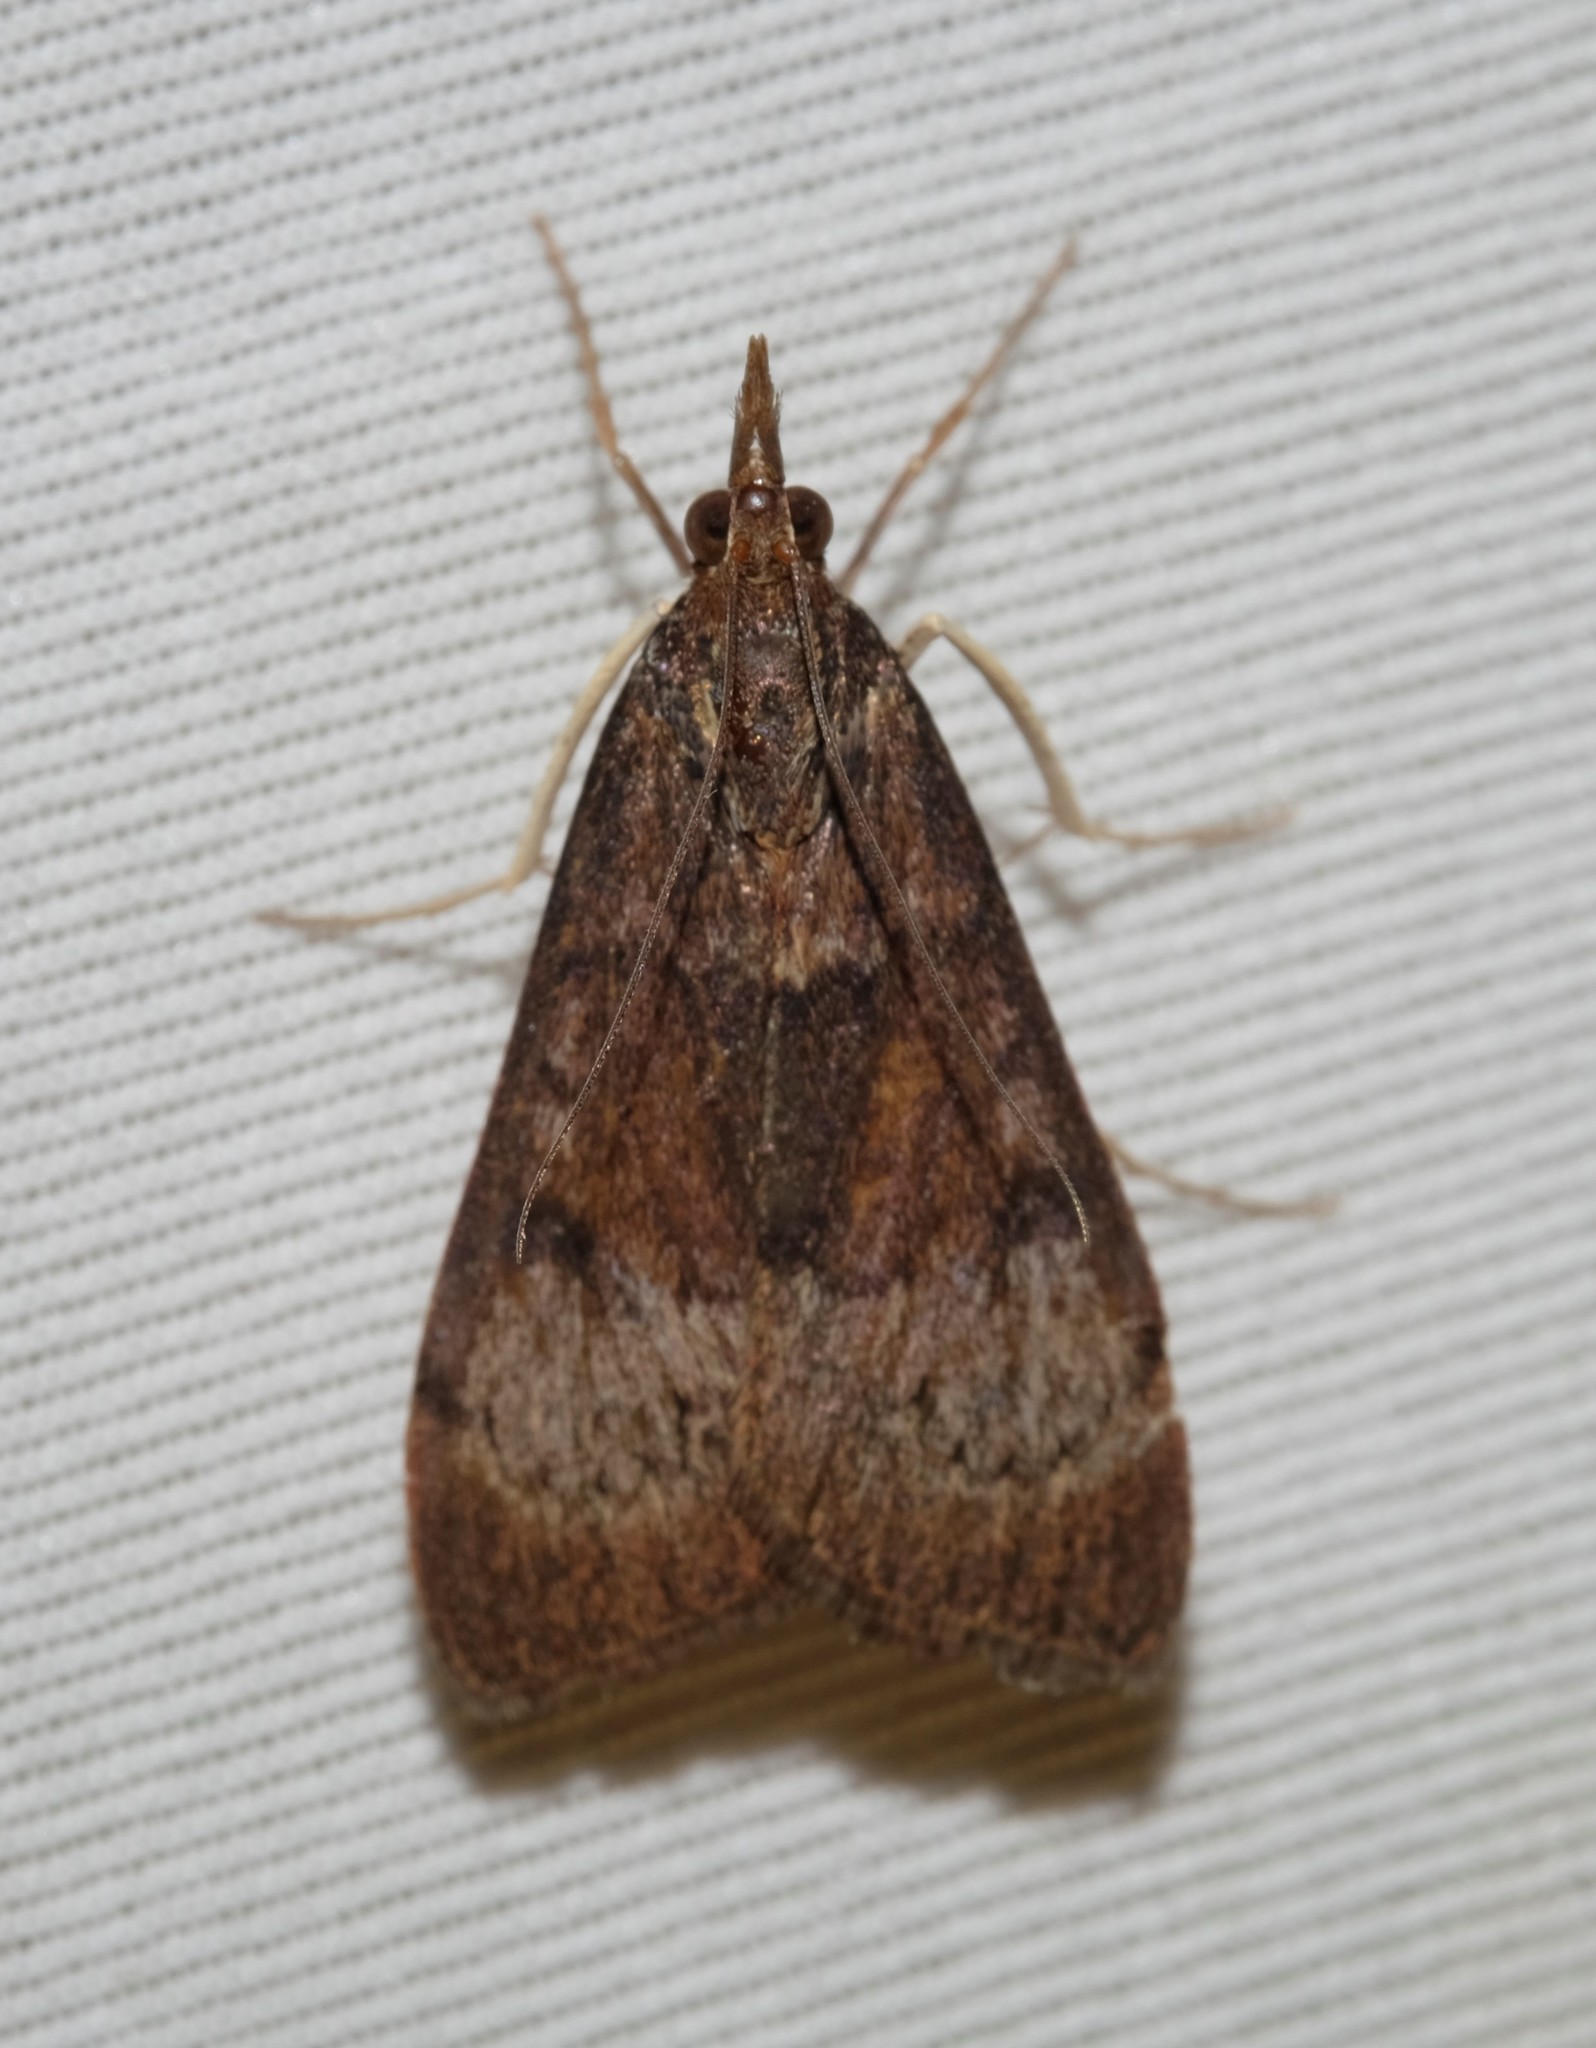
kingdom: Animalia
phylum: Arthropoda
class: Insecta
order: Lepidoptera
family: Crambidae
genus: Uresiphita
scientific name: Uresiphita ornithopteralis
